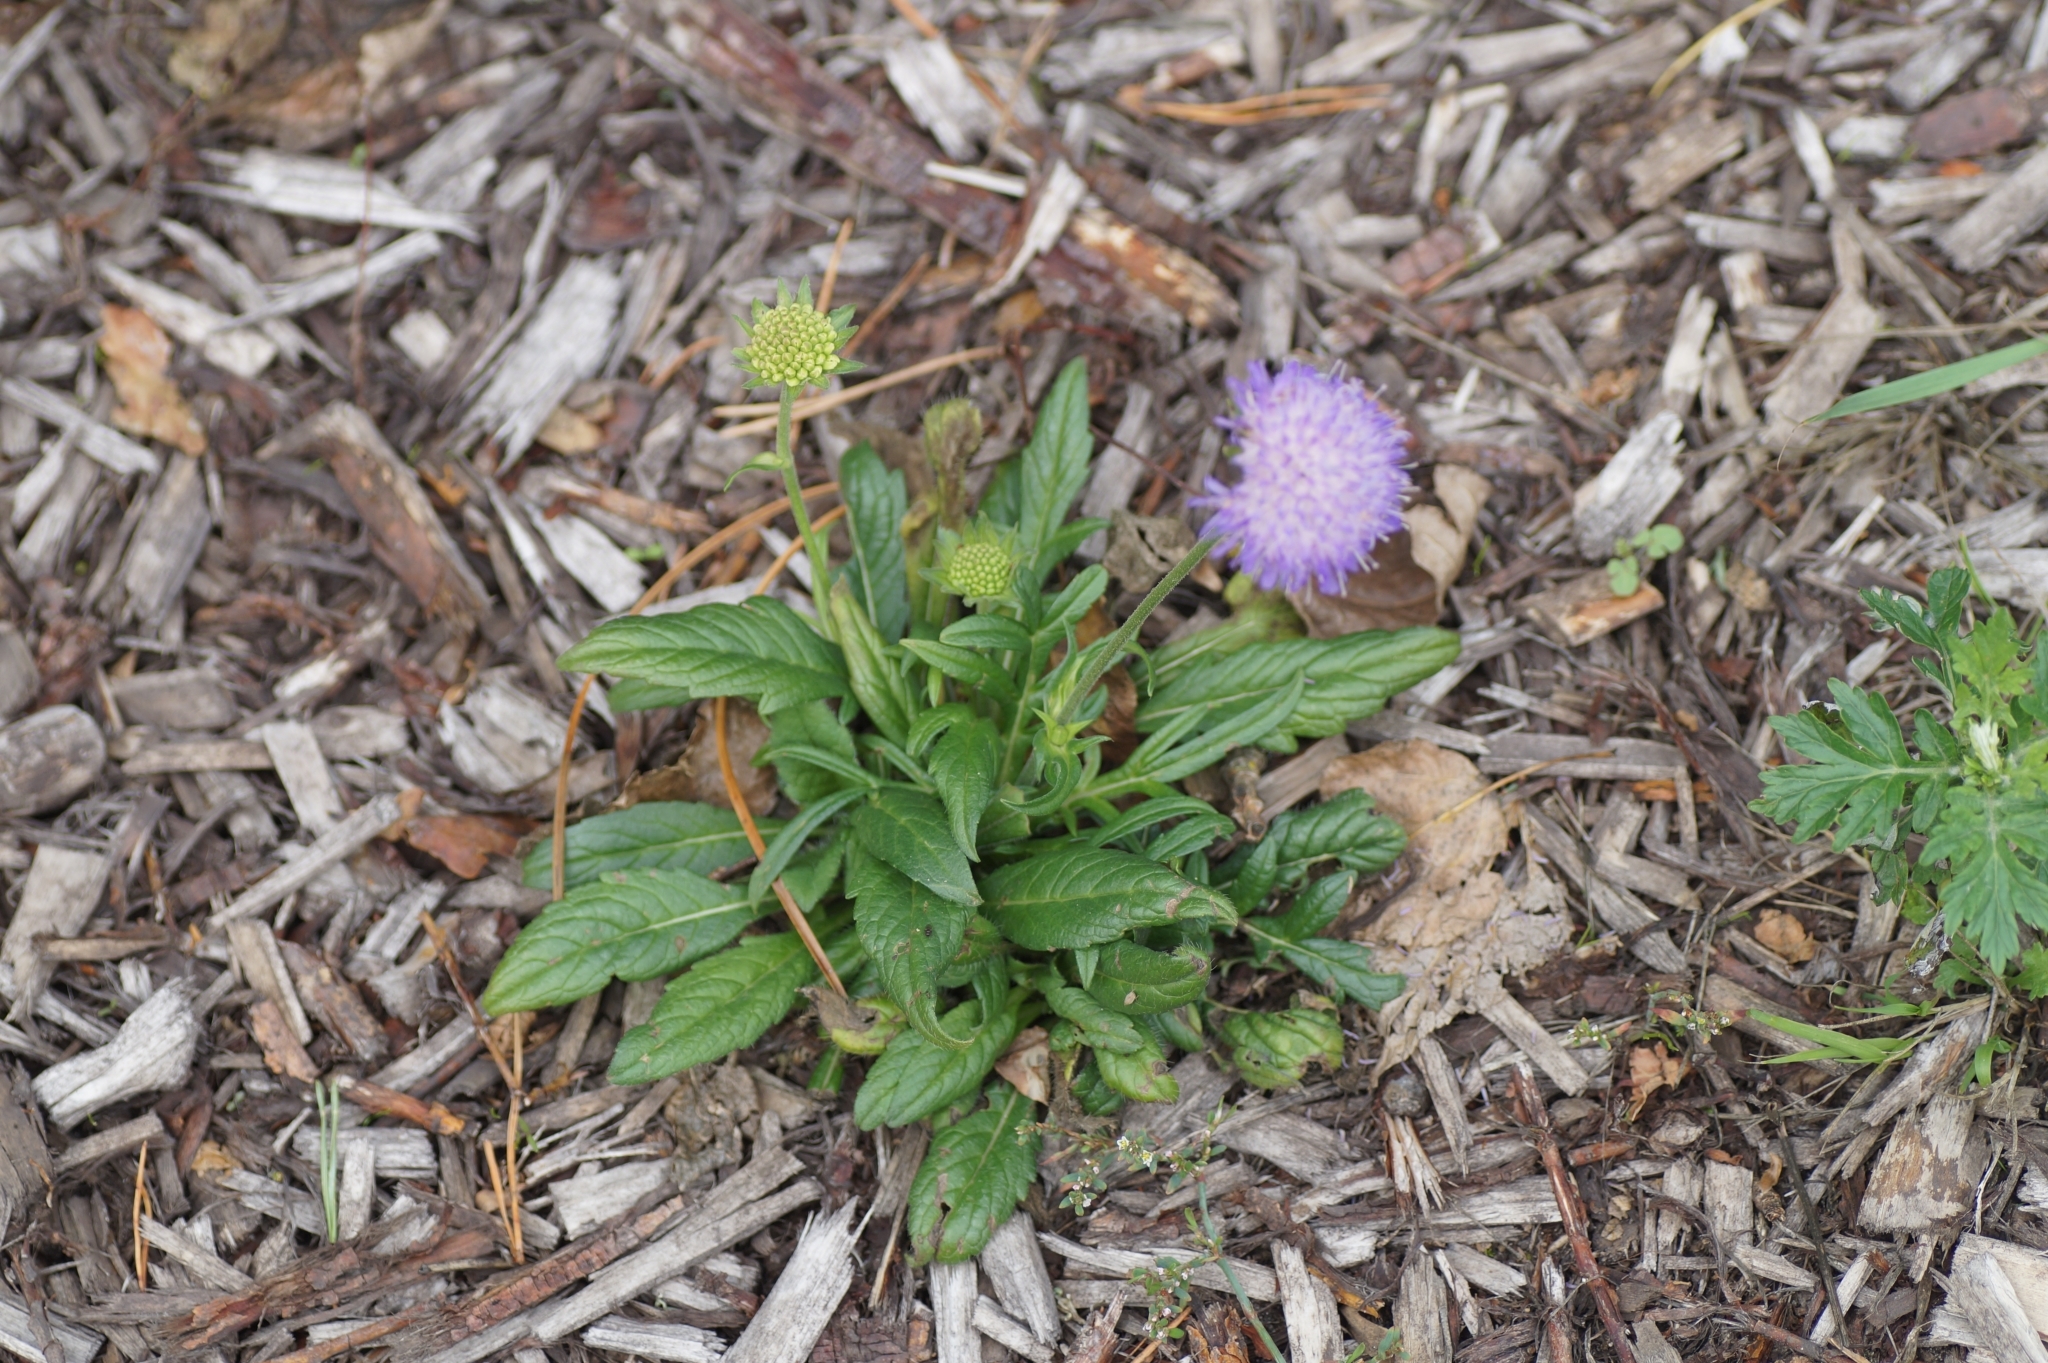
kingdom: Plantae
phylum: Tracheophyta
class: Magnoliopsida
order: Dipsacales
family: Caprifoliaceae
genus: Knautia
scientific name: Knautia arvensis
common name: Field scabiosa
